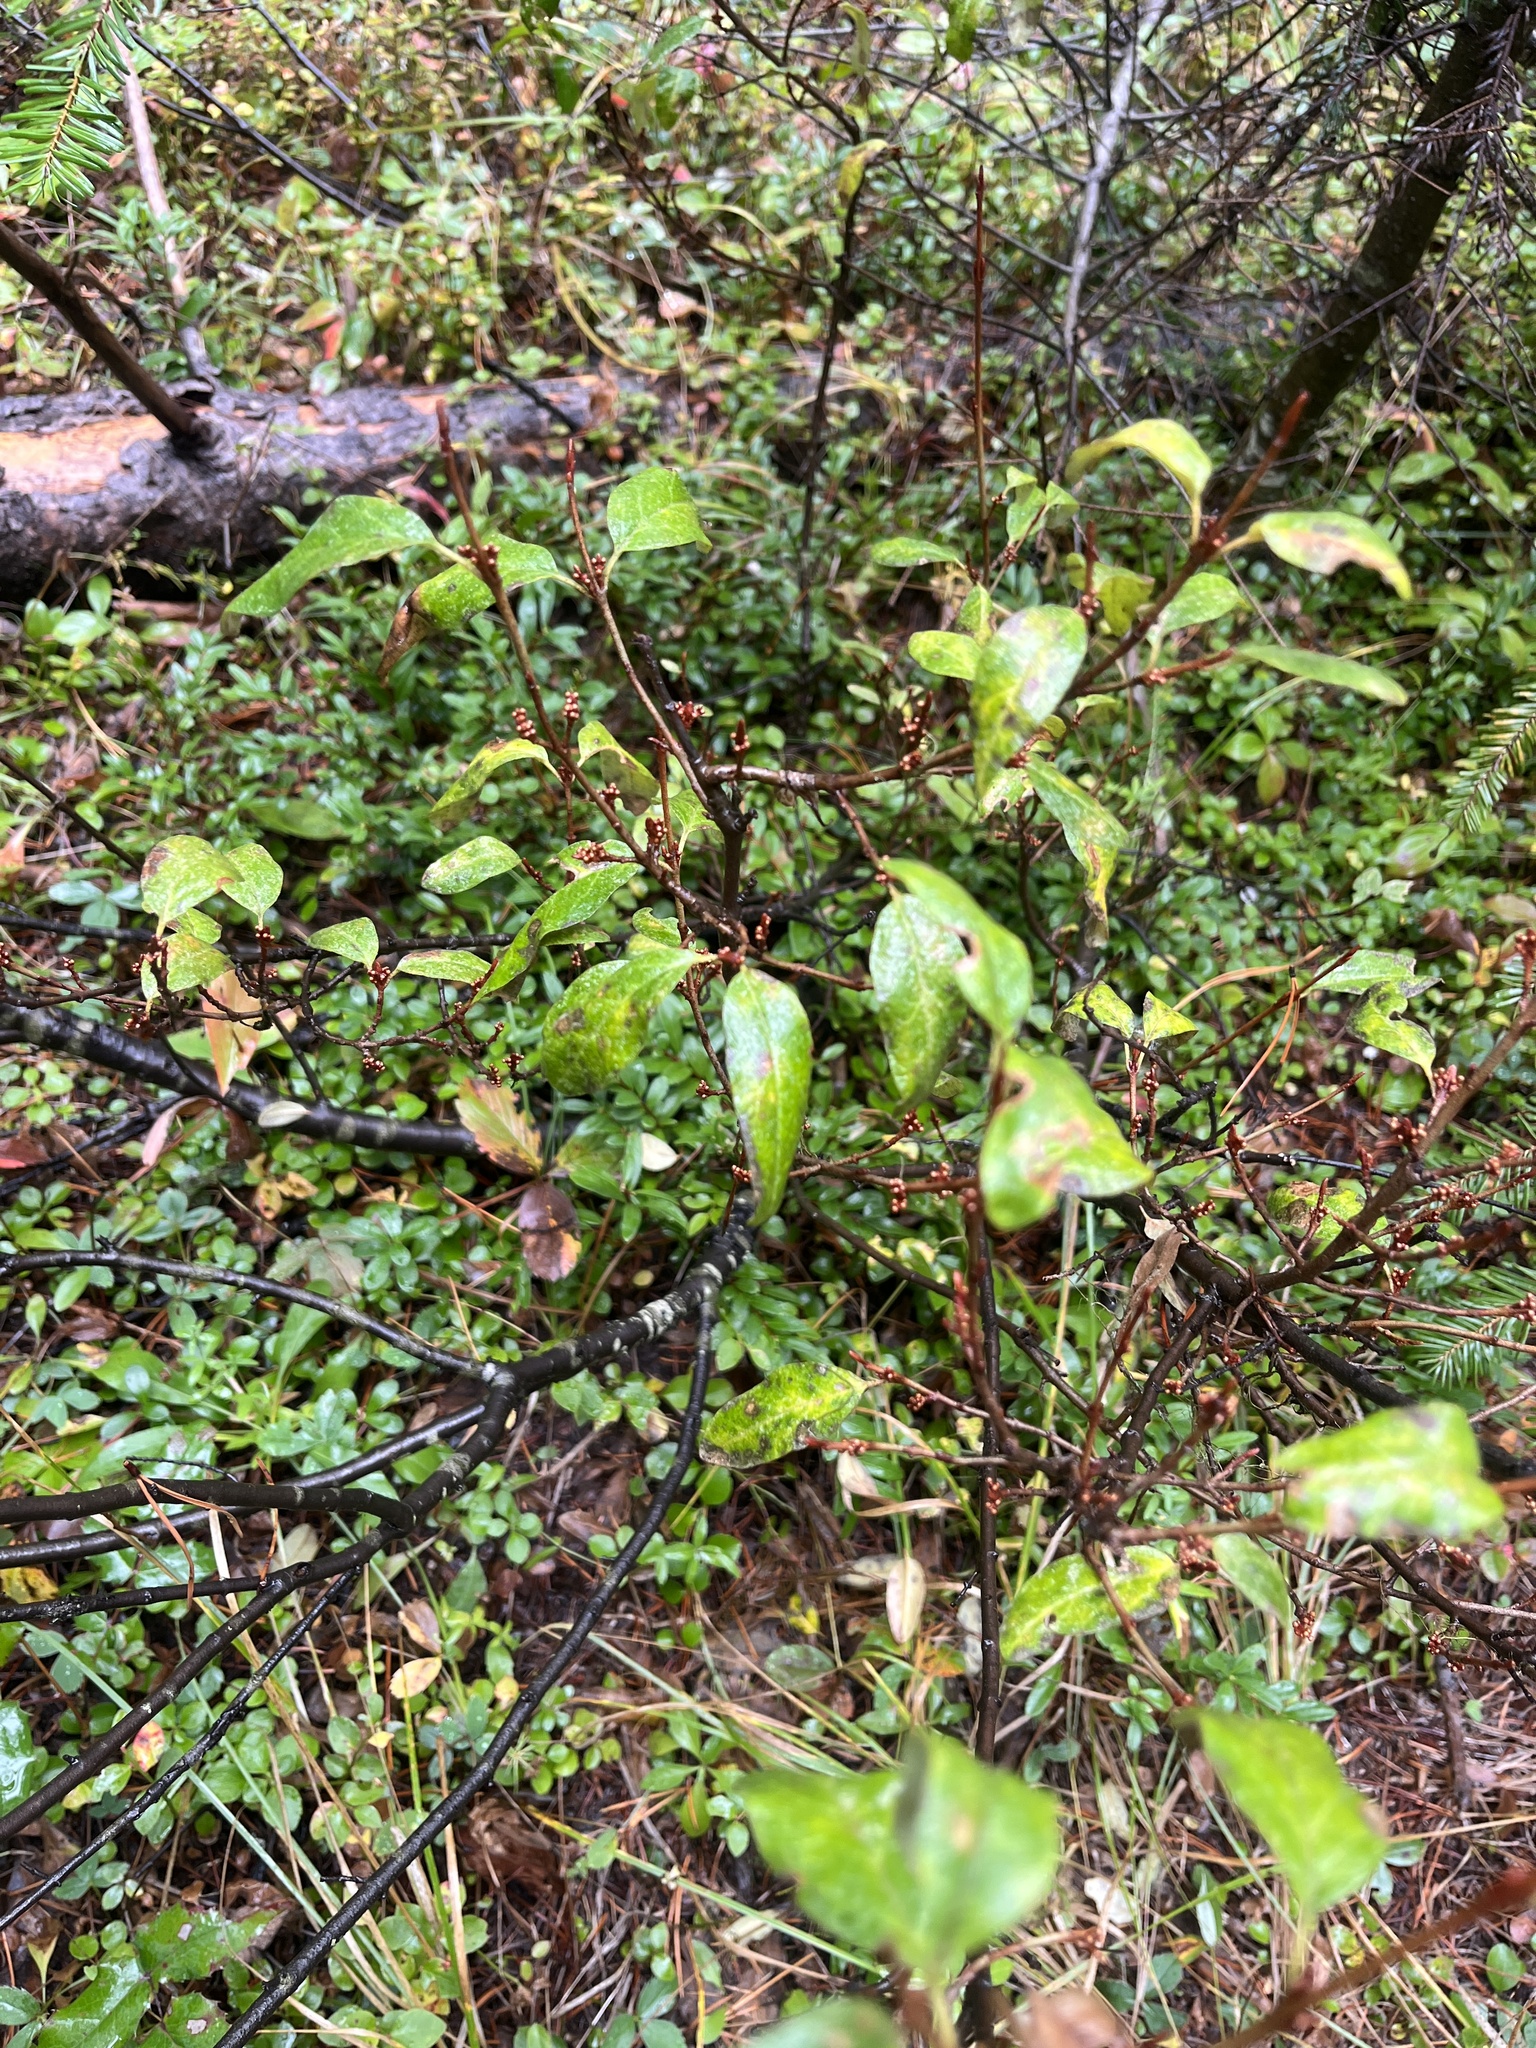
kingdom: Plantae
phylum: Tracheophyta
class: Magnoliopsida
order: Rosales
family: Elaeagnaceae
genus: Shepherdia
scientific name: Shepherdia canadensis
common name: Soapberry
